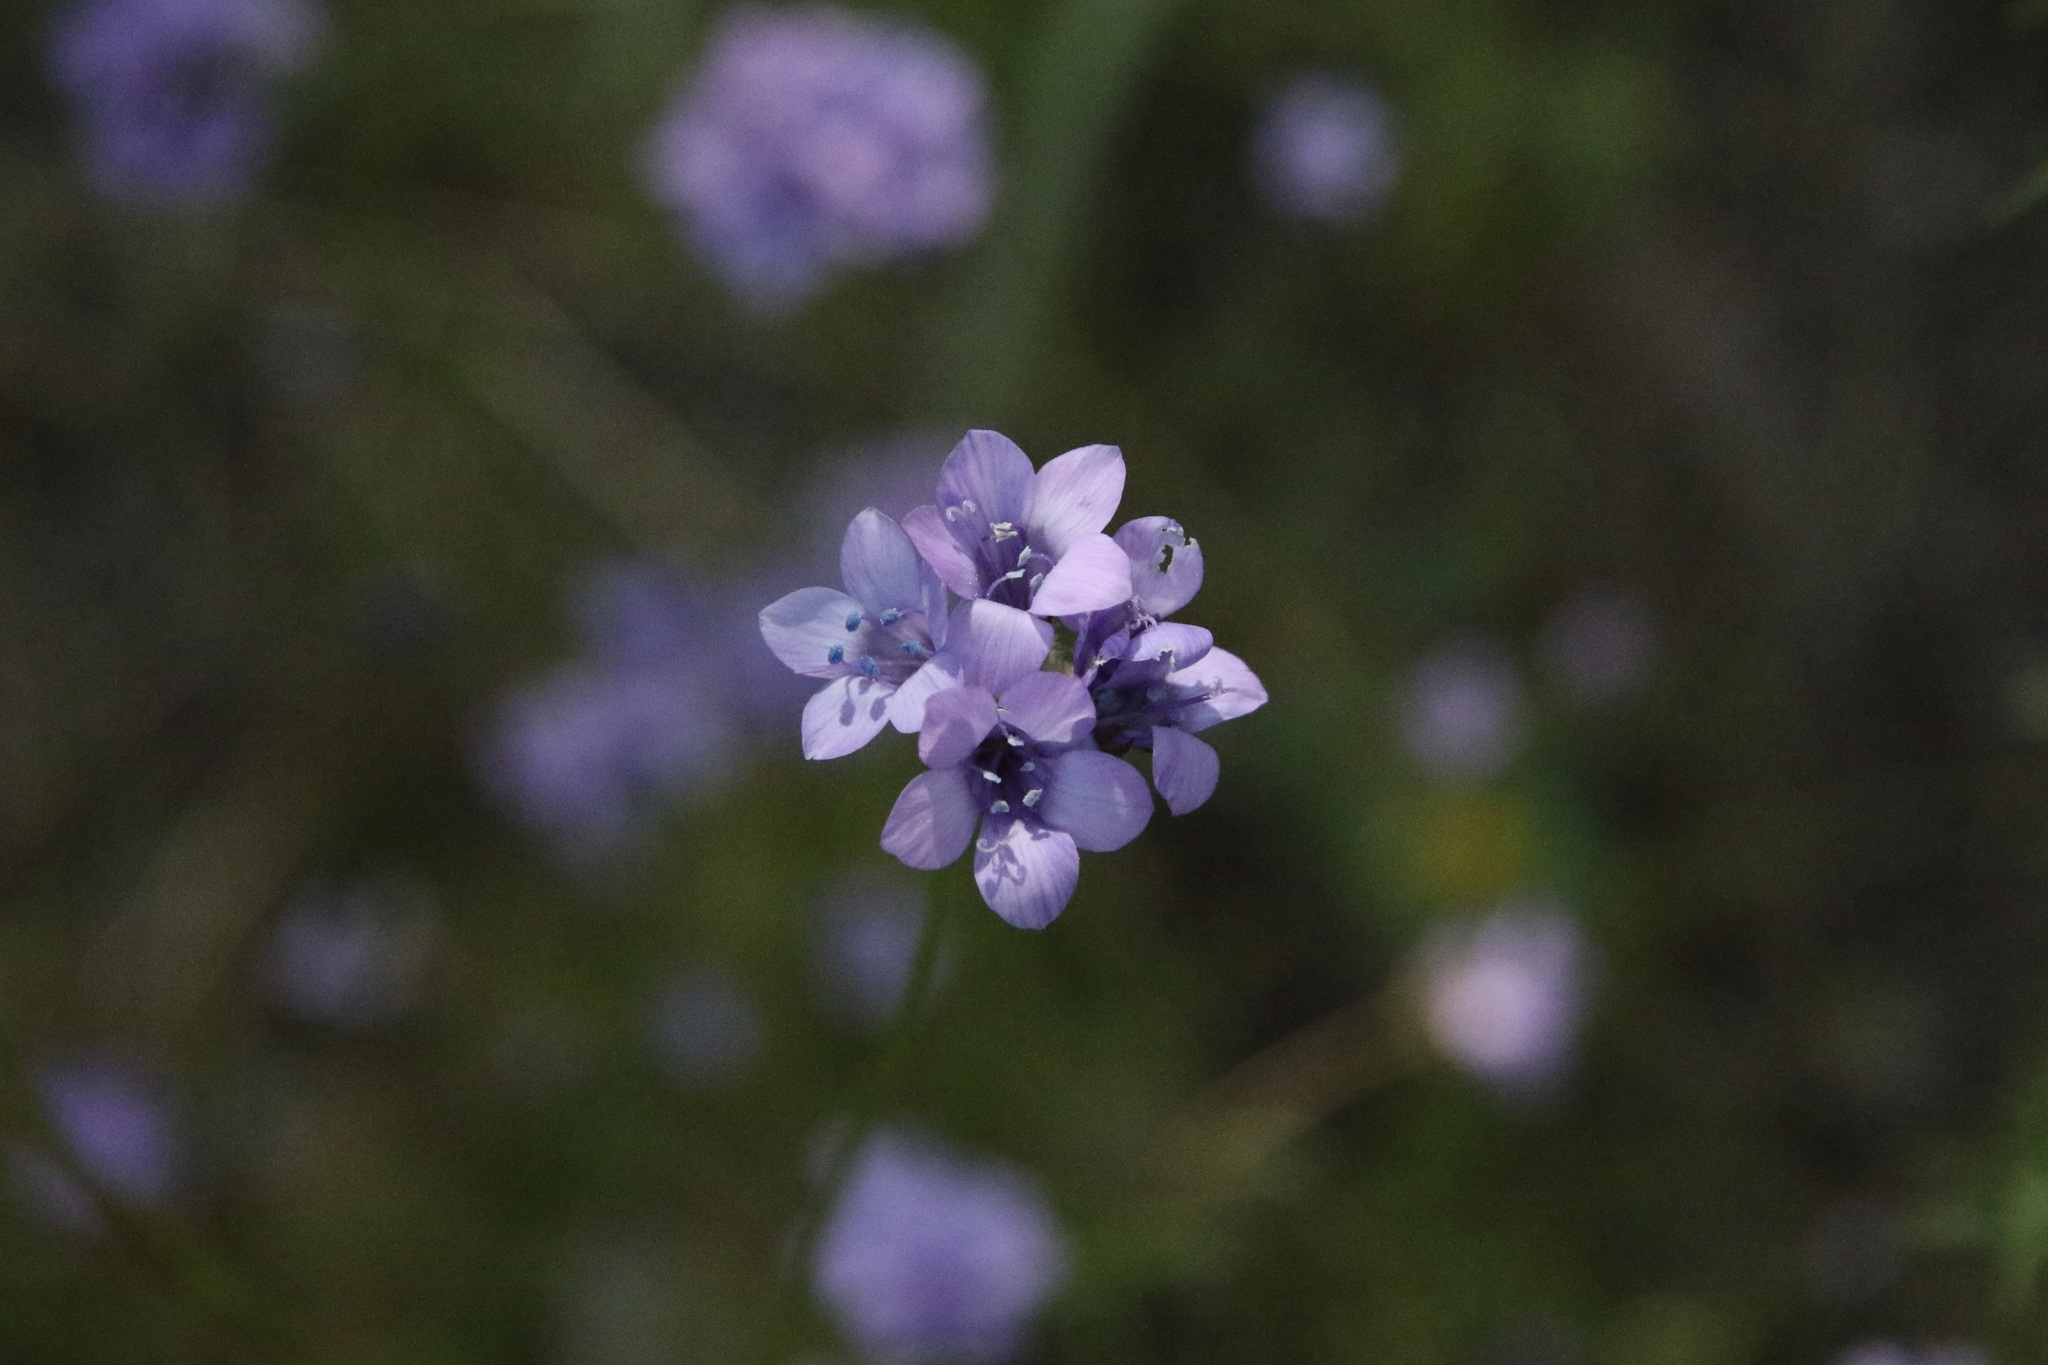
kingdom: Plantae
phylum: Tracheophyta
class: Magnoliopsida
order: Ericales
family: Polemoniaceae
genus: Gilia
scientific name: Gilia achilleifolia
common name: California gily-flower
